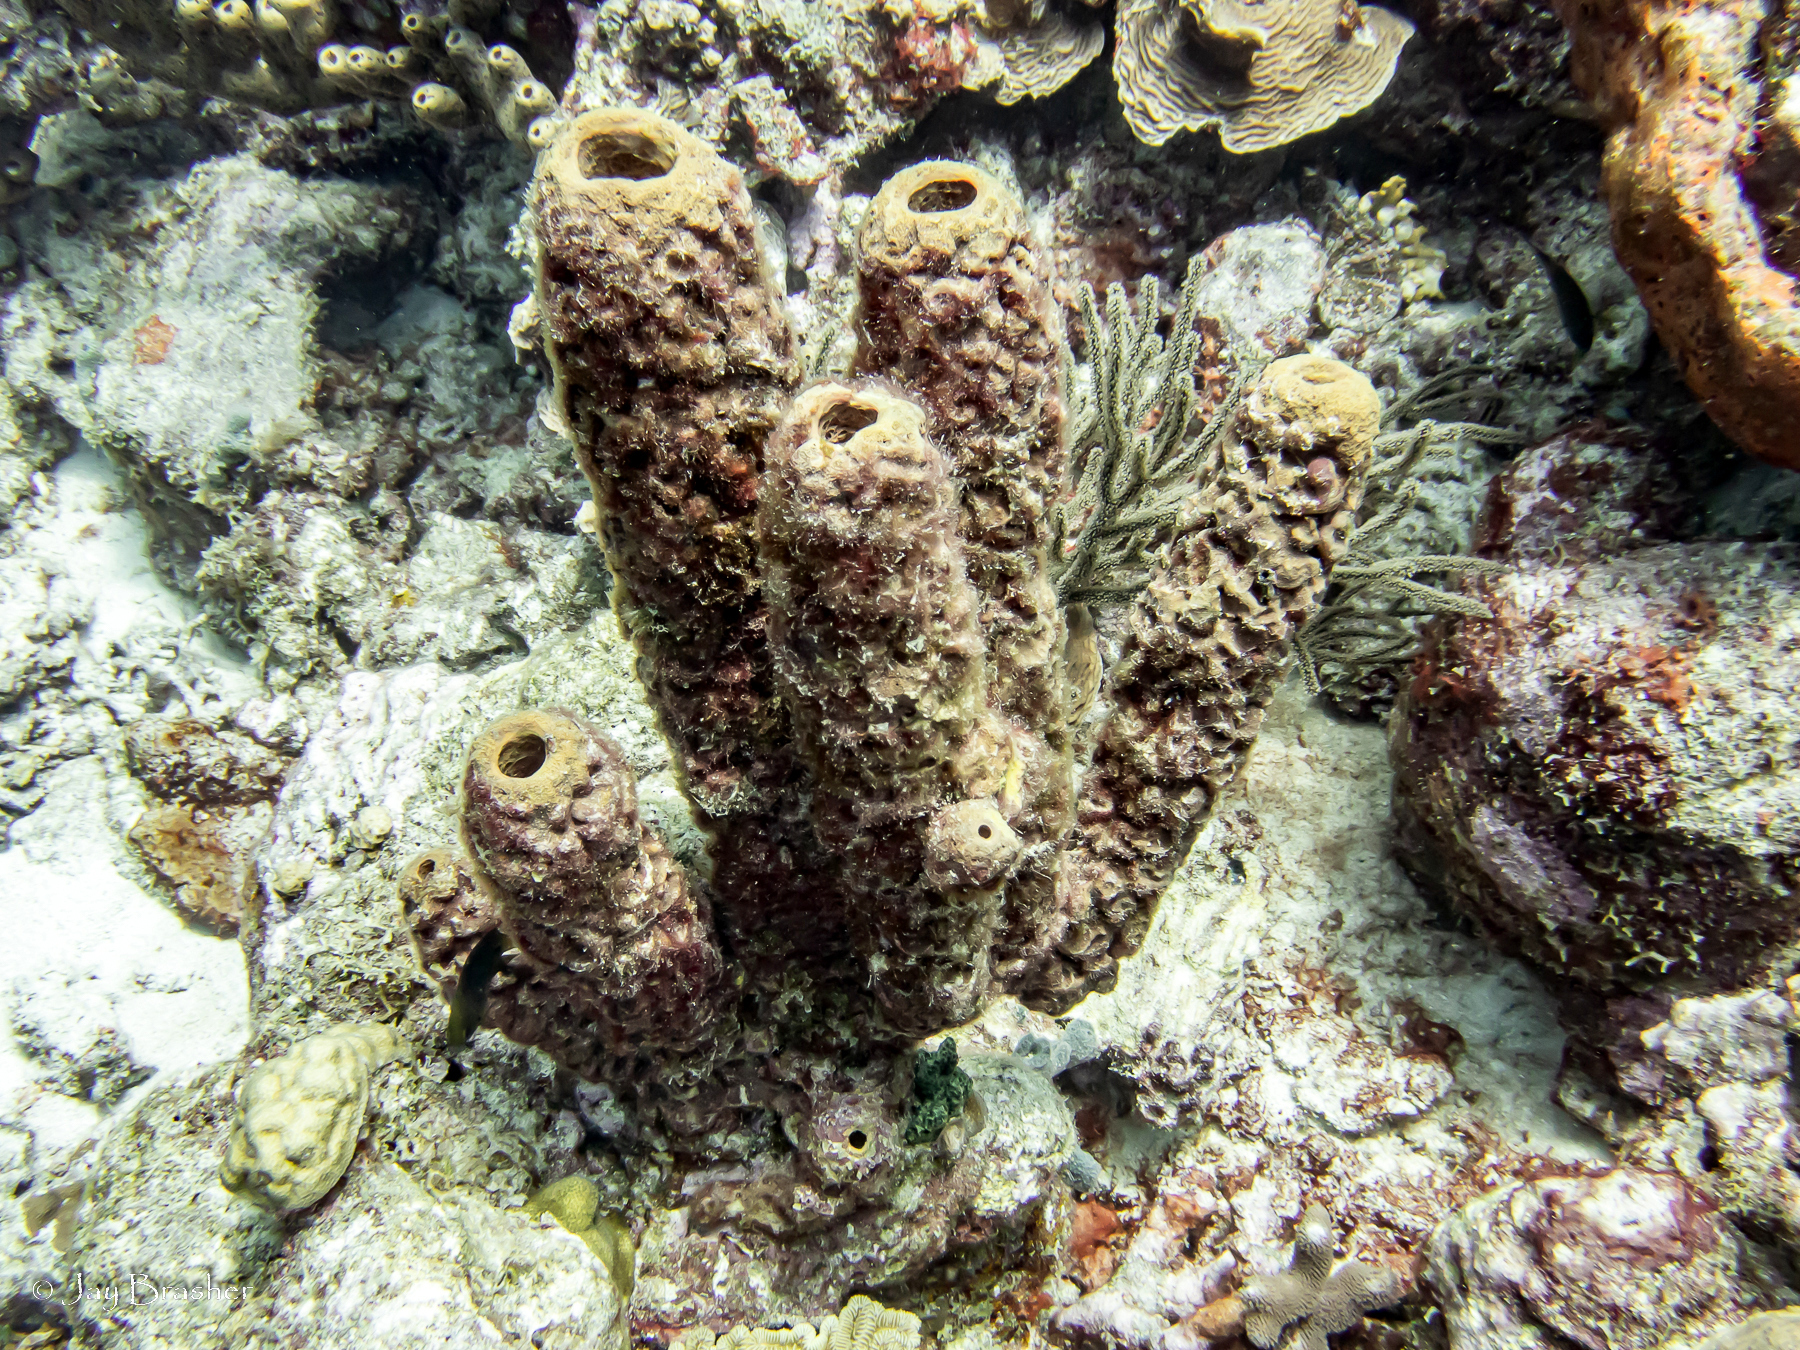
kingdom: Animalia
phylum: Porifera
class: Demospongiae
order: Verongiida
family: Aplysinidae
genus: Aplysina
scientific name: Aplysina archeri
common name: Stove-pipe sponge
